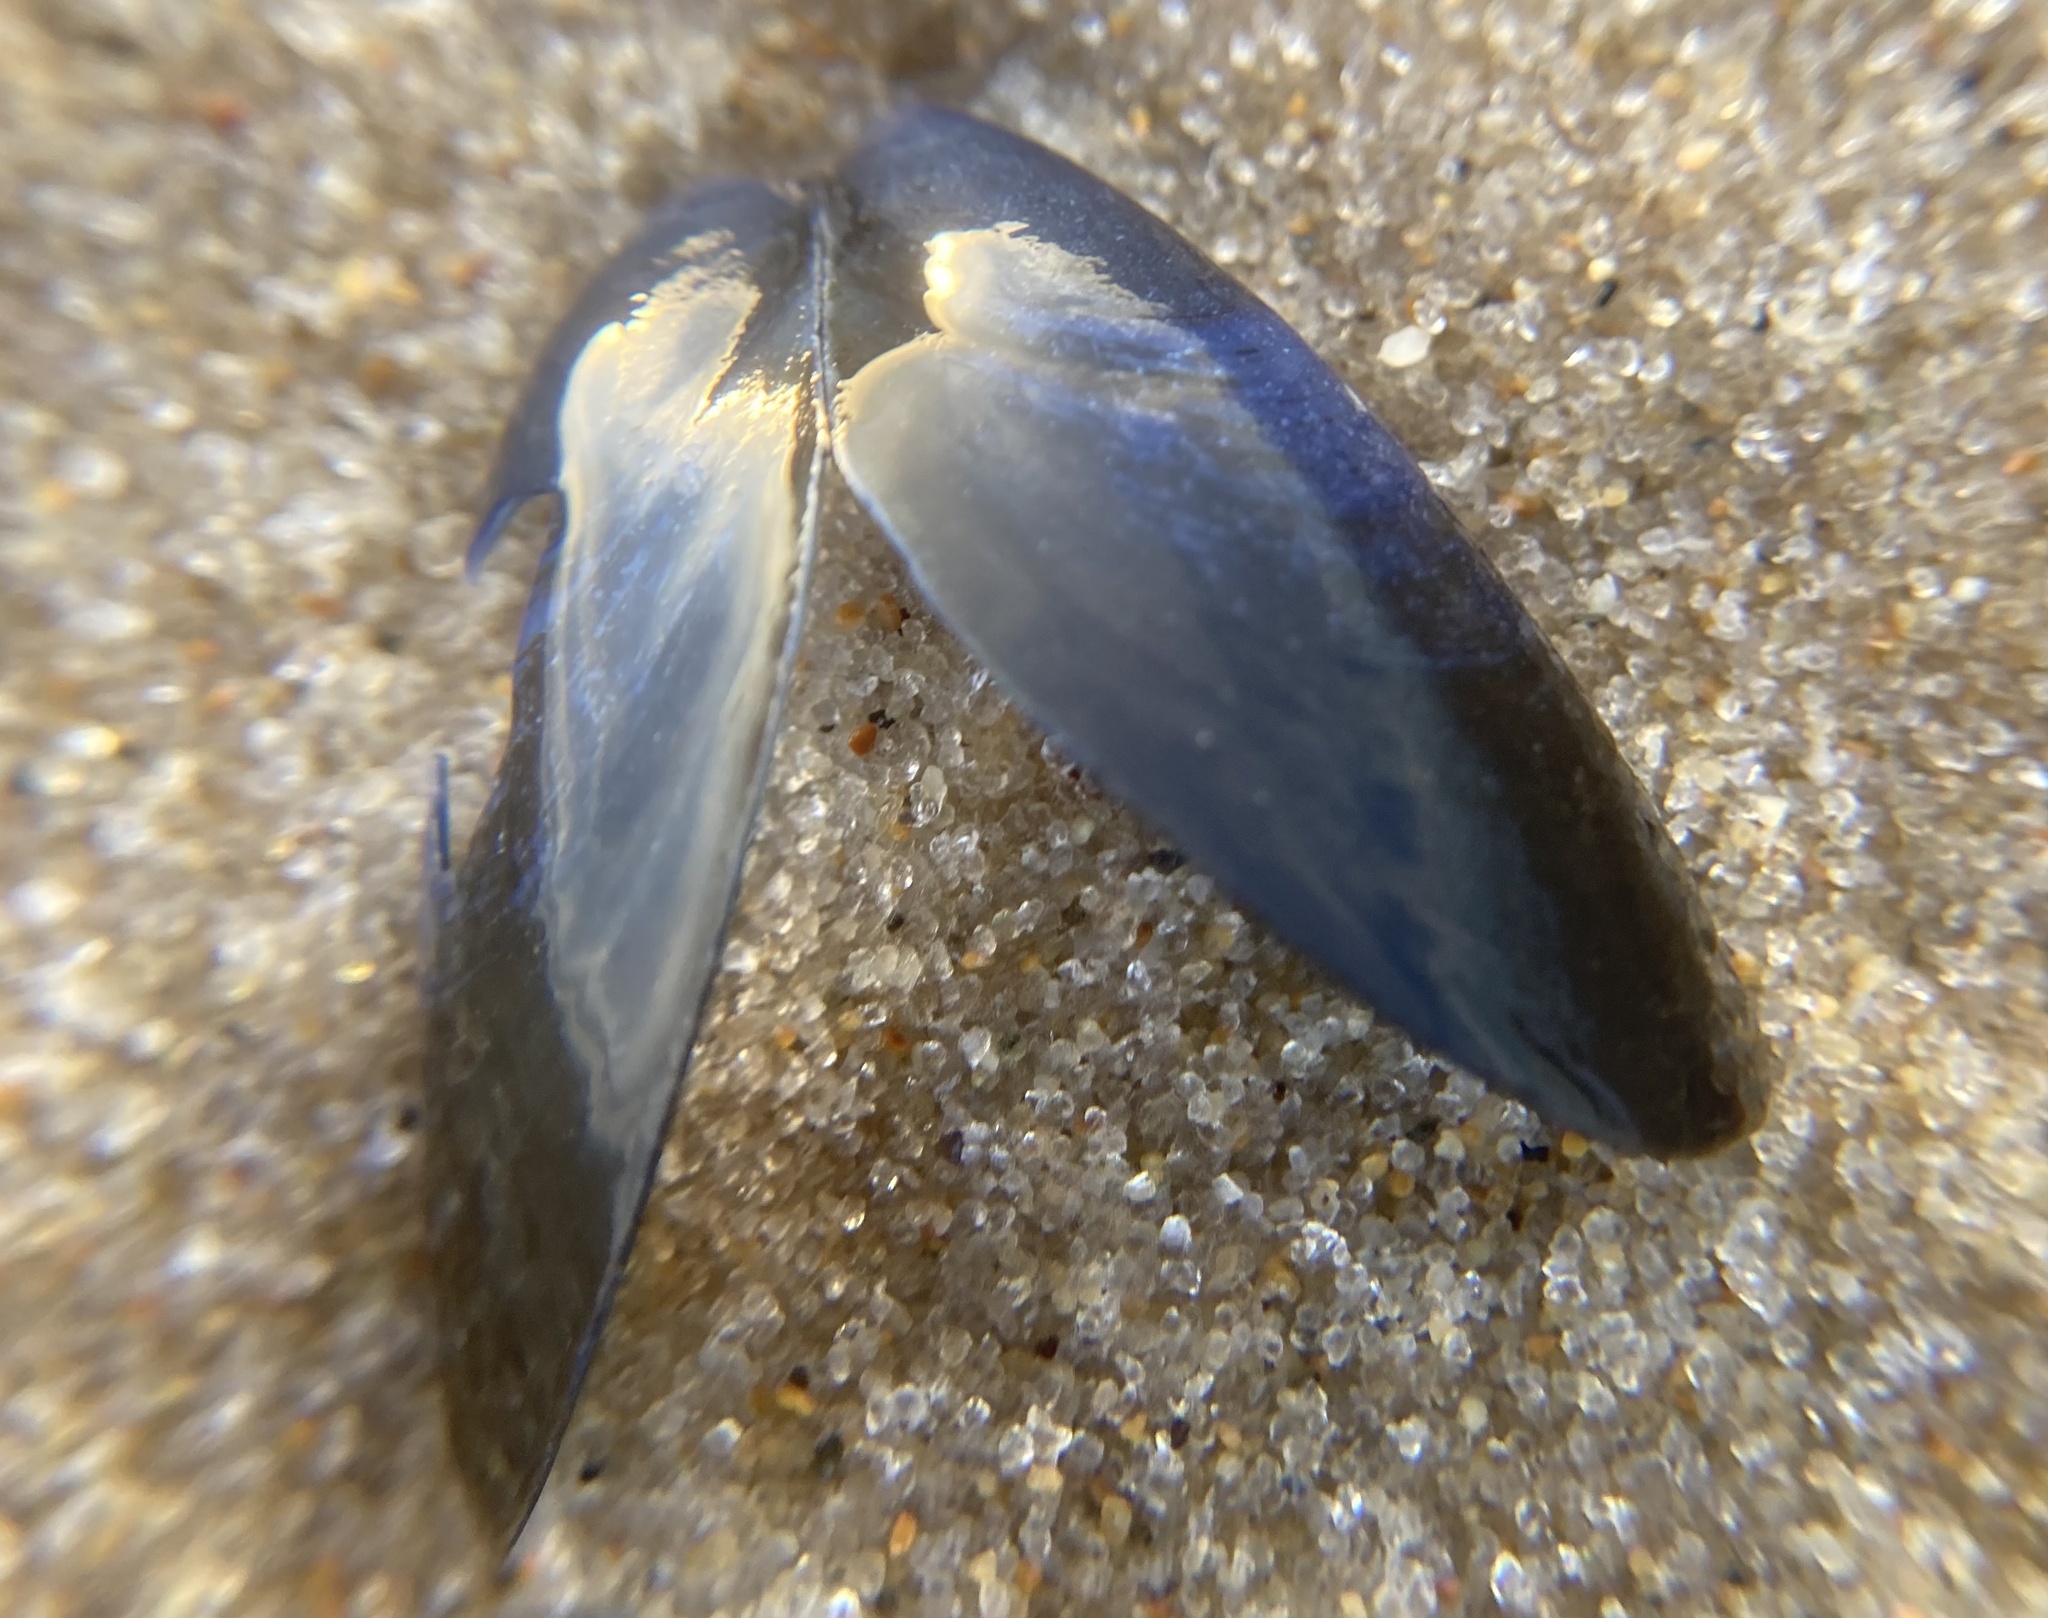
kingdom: Animalia
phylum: Mollusca
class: Bivalvia
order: Mytilida
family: Mytilidae
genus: Mytilus
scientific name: Mytilus edulis
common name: Blue mussel
